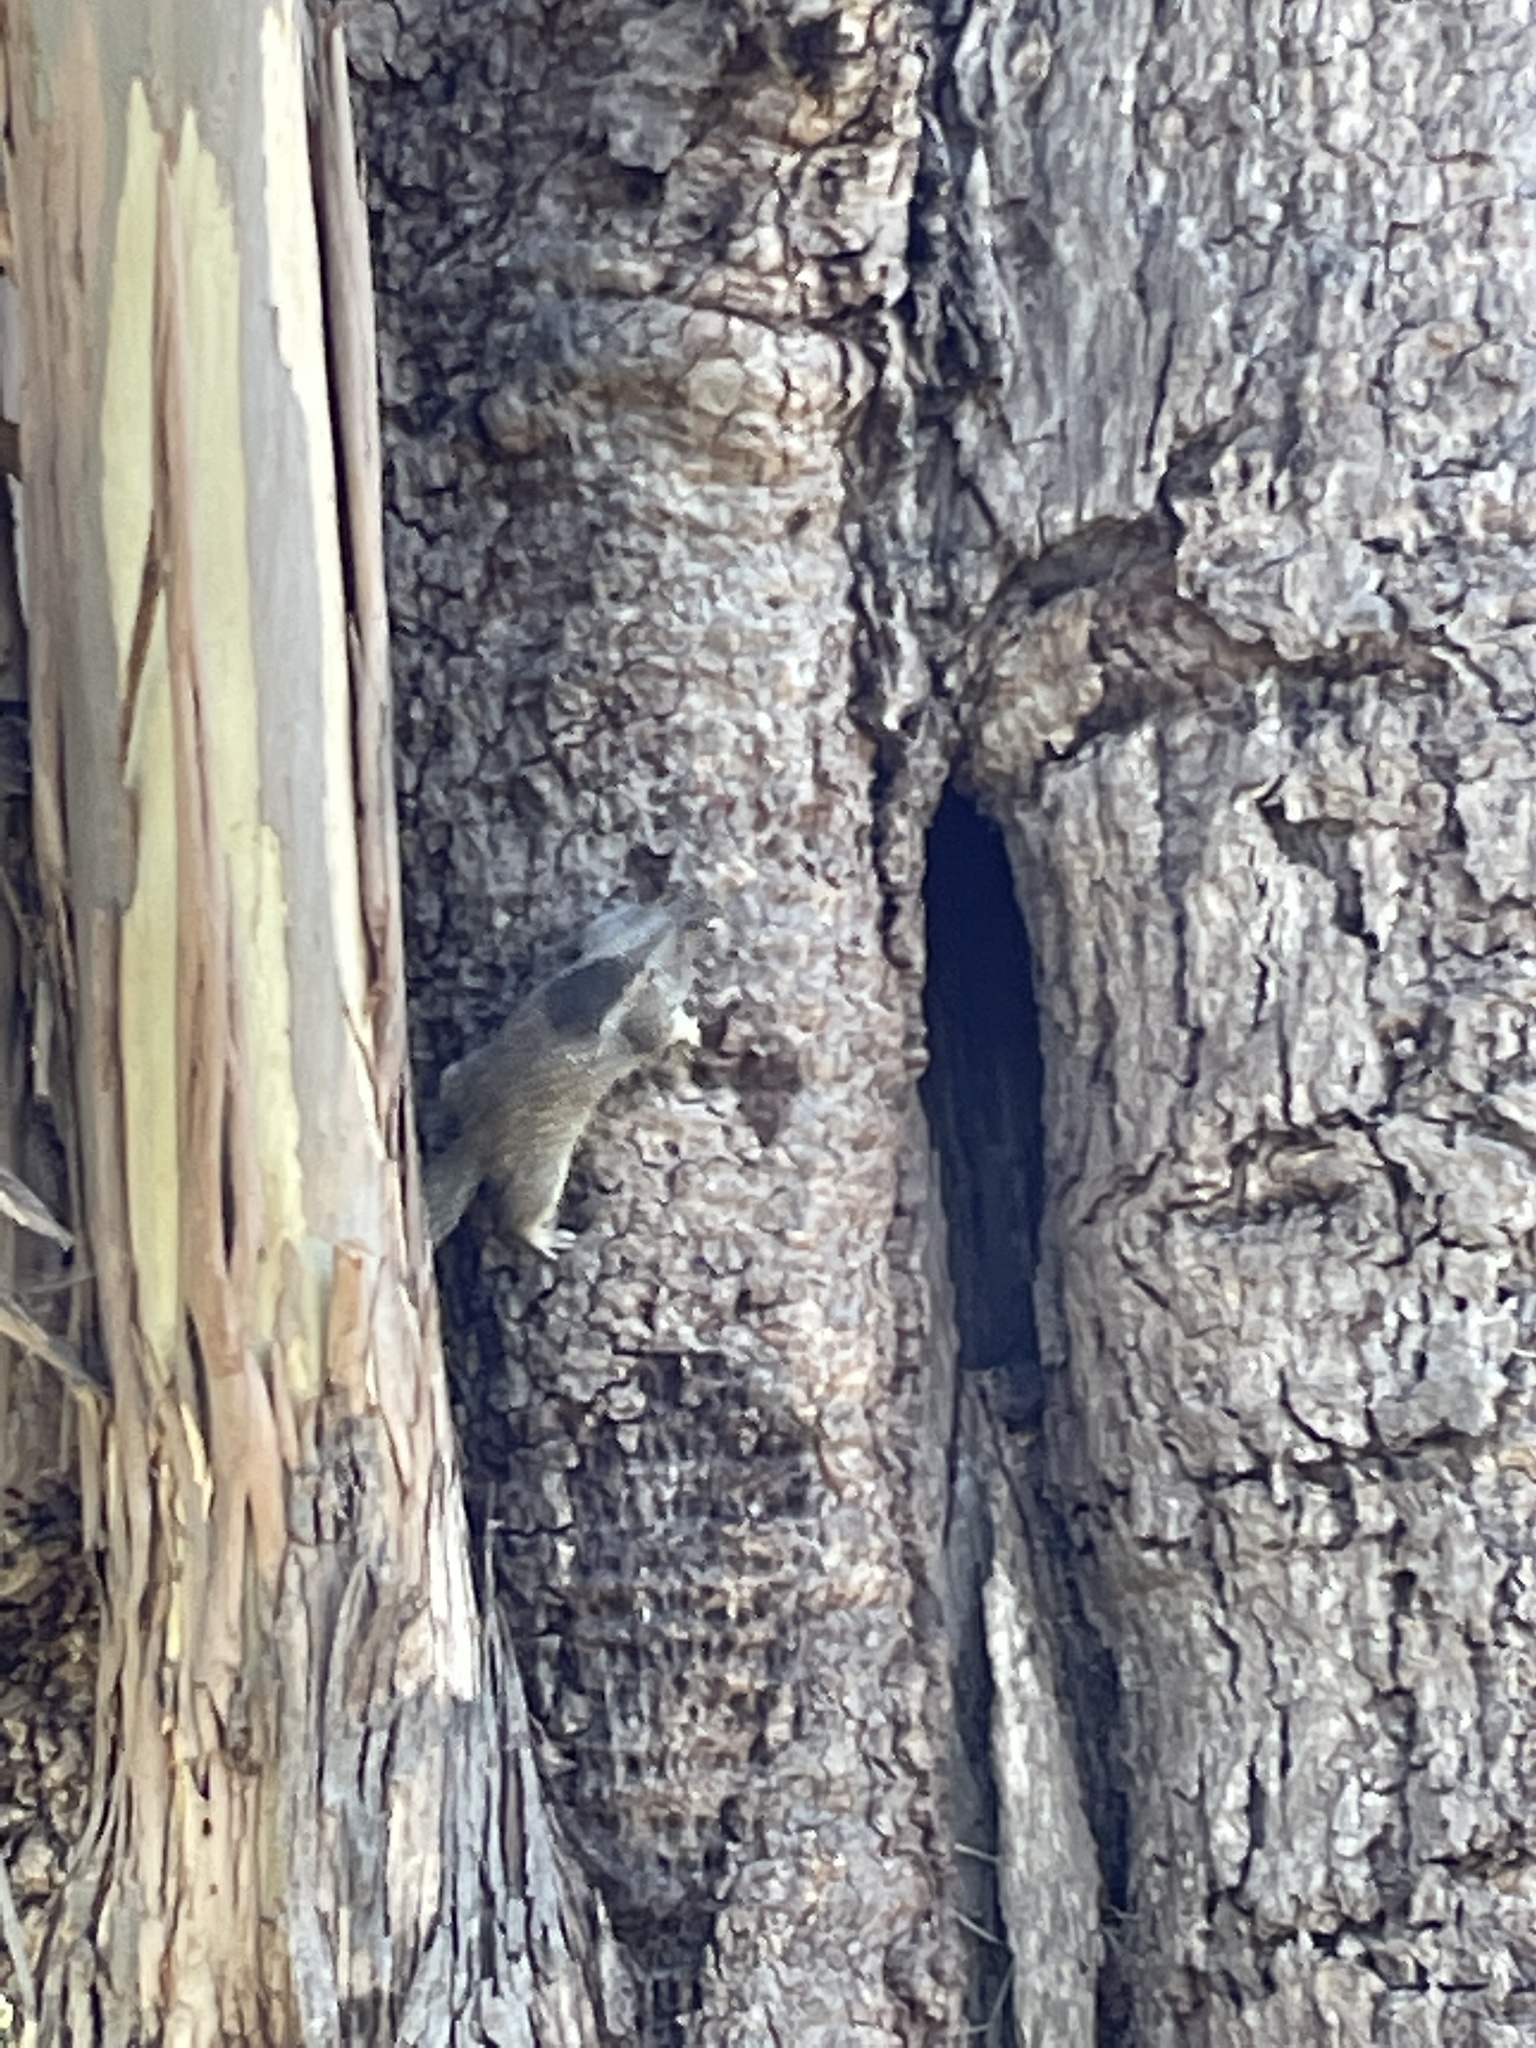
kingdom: Animalia
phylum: Chordata
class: Mammalia
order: Rodentia
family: Sciuridae
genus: Otospermophilus
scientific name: Otospermophilus beecheyi
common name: California ground squirrel
